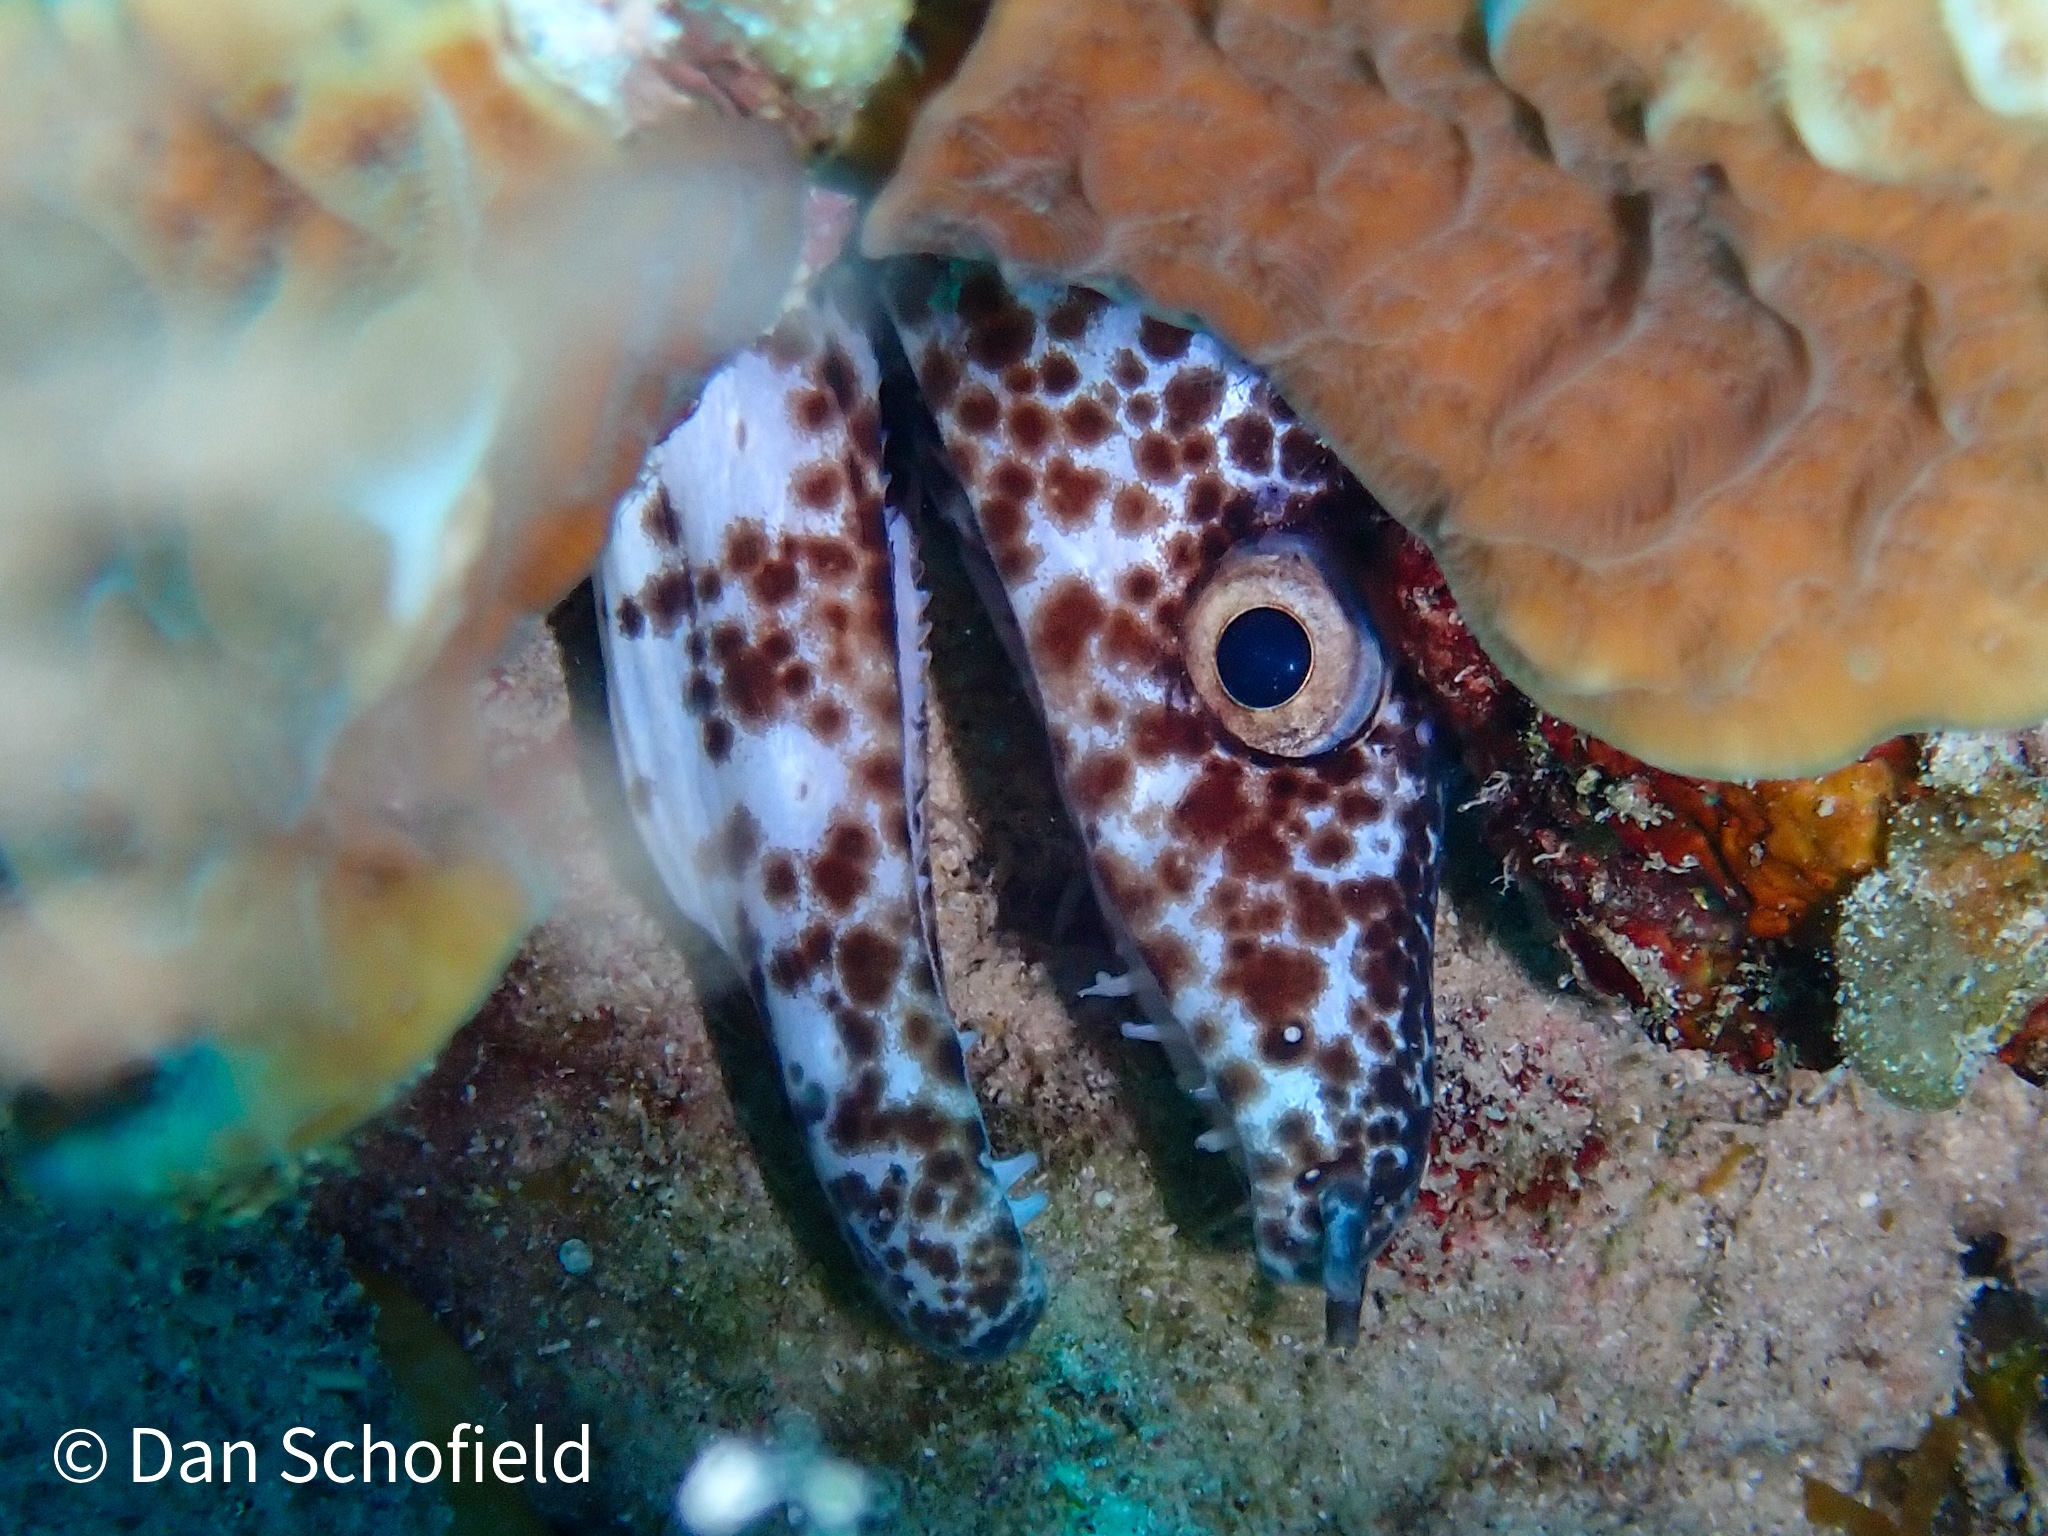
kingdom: Animalia
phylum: Chordata
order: Anguilliformes
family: Muraenidae
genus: Gymnothorax
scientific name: Gymnothorax moringa
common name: Spotted moray
